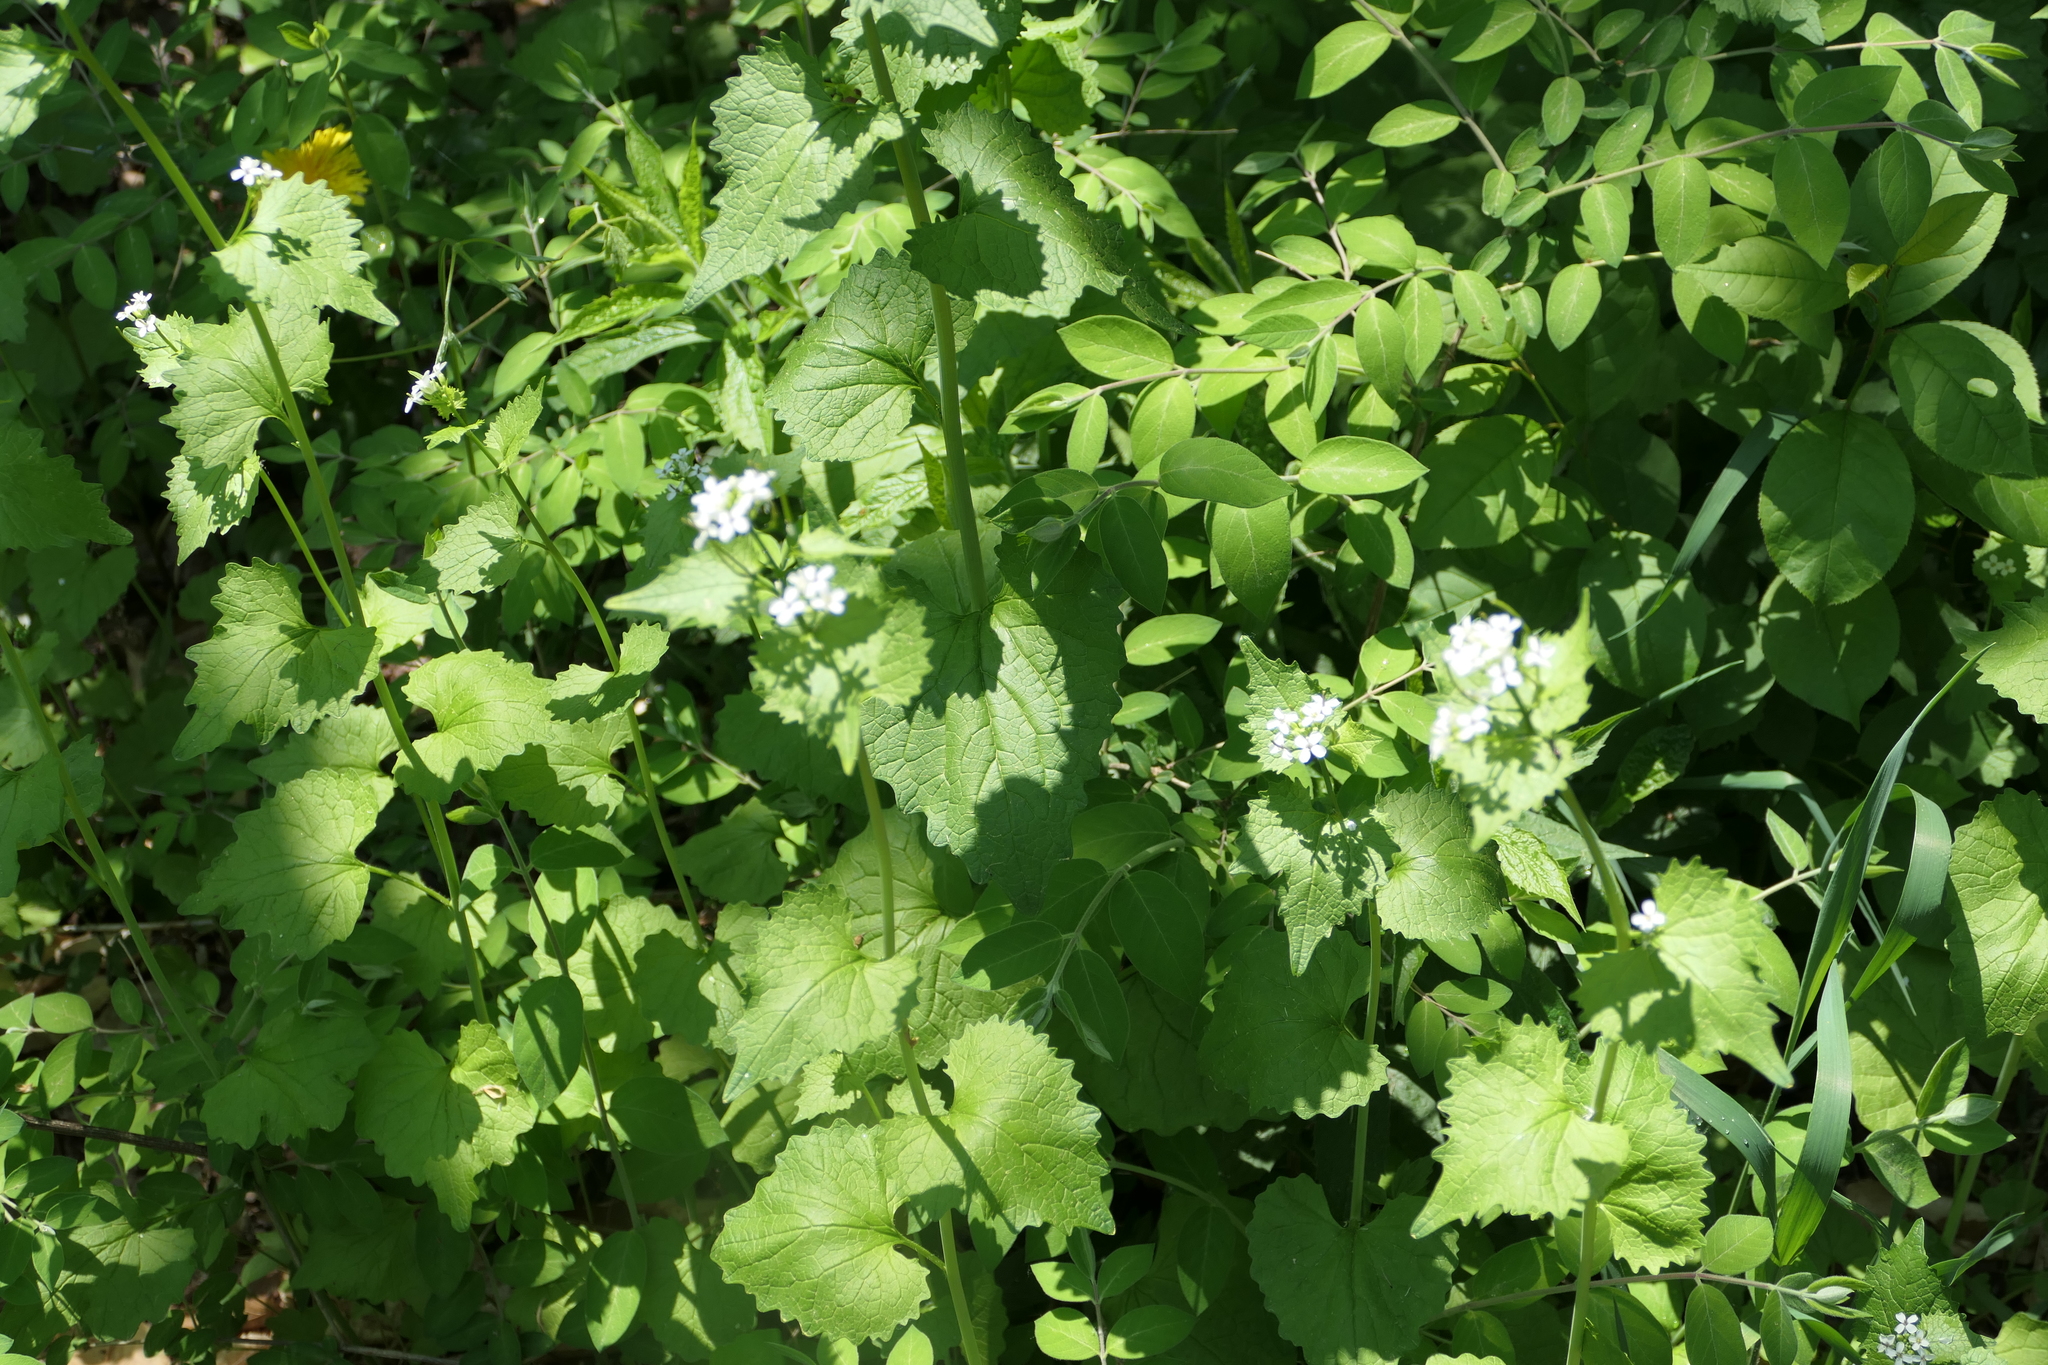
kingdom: Plantae
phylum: Tracheophyta
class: Magnoliopsida
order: Brassicales
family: Brassicaceae
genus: Alliaria
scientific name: Alliaria petiolata
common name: Garlic mustard
